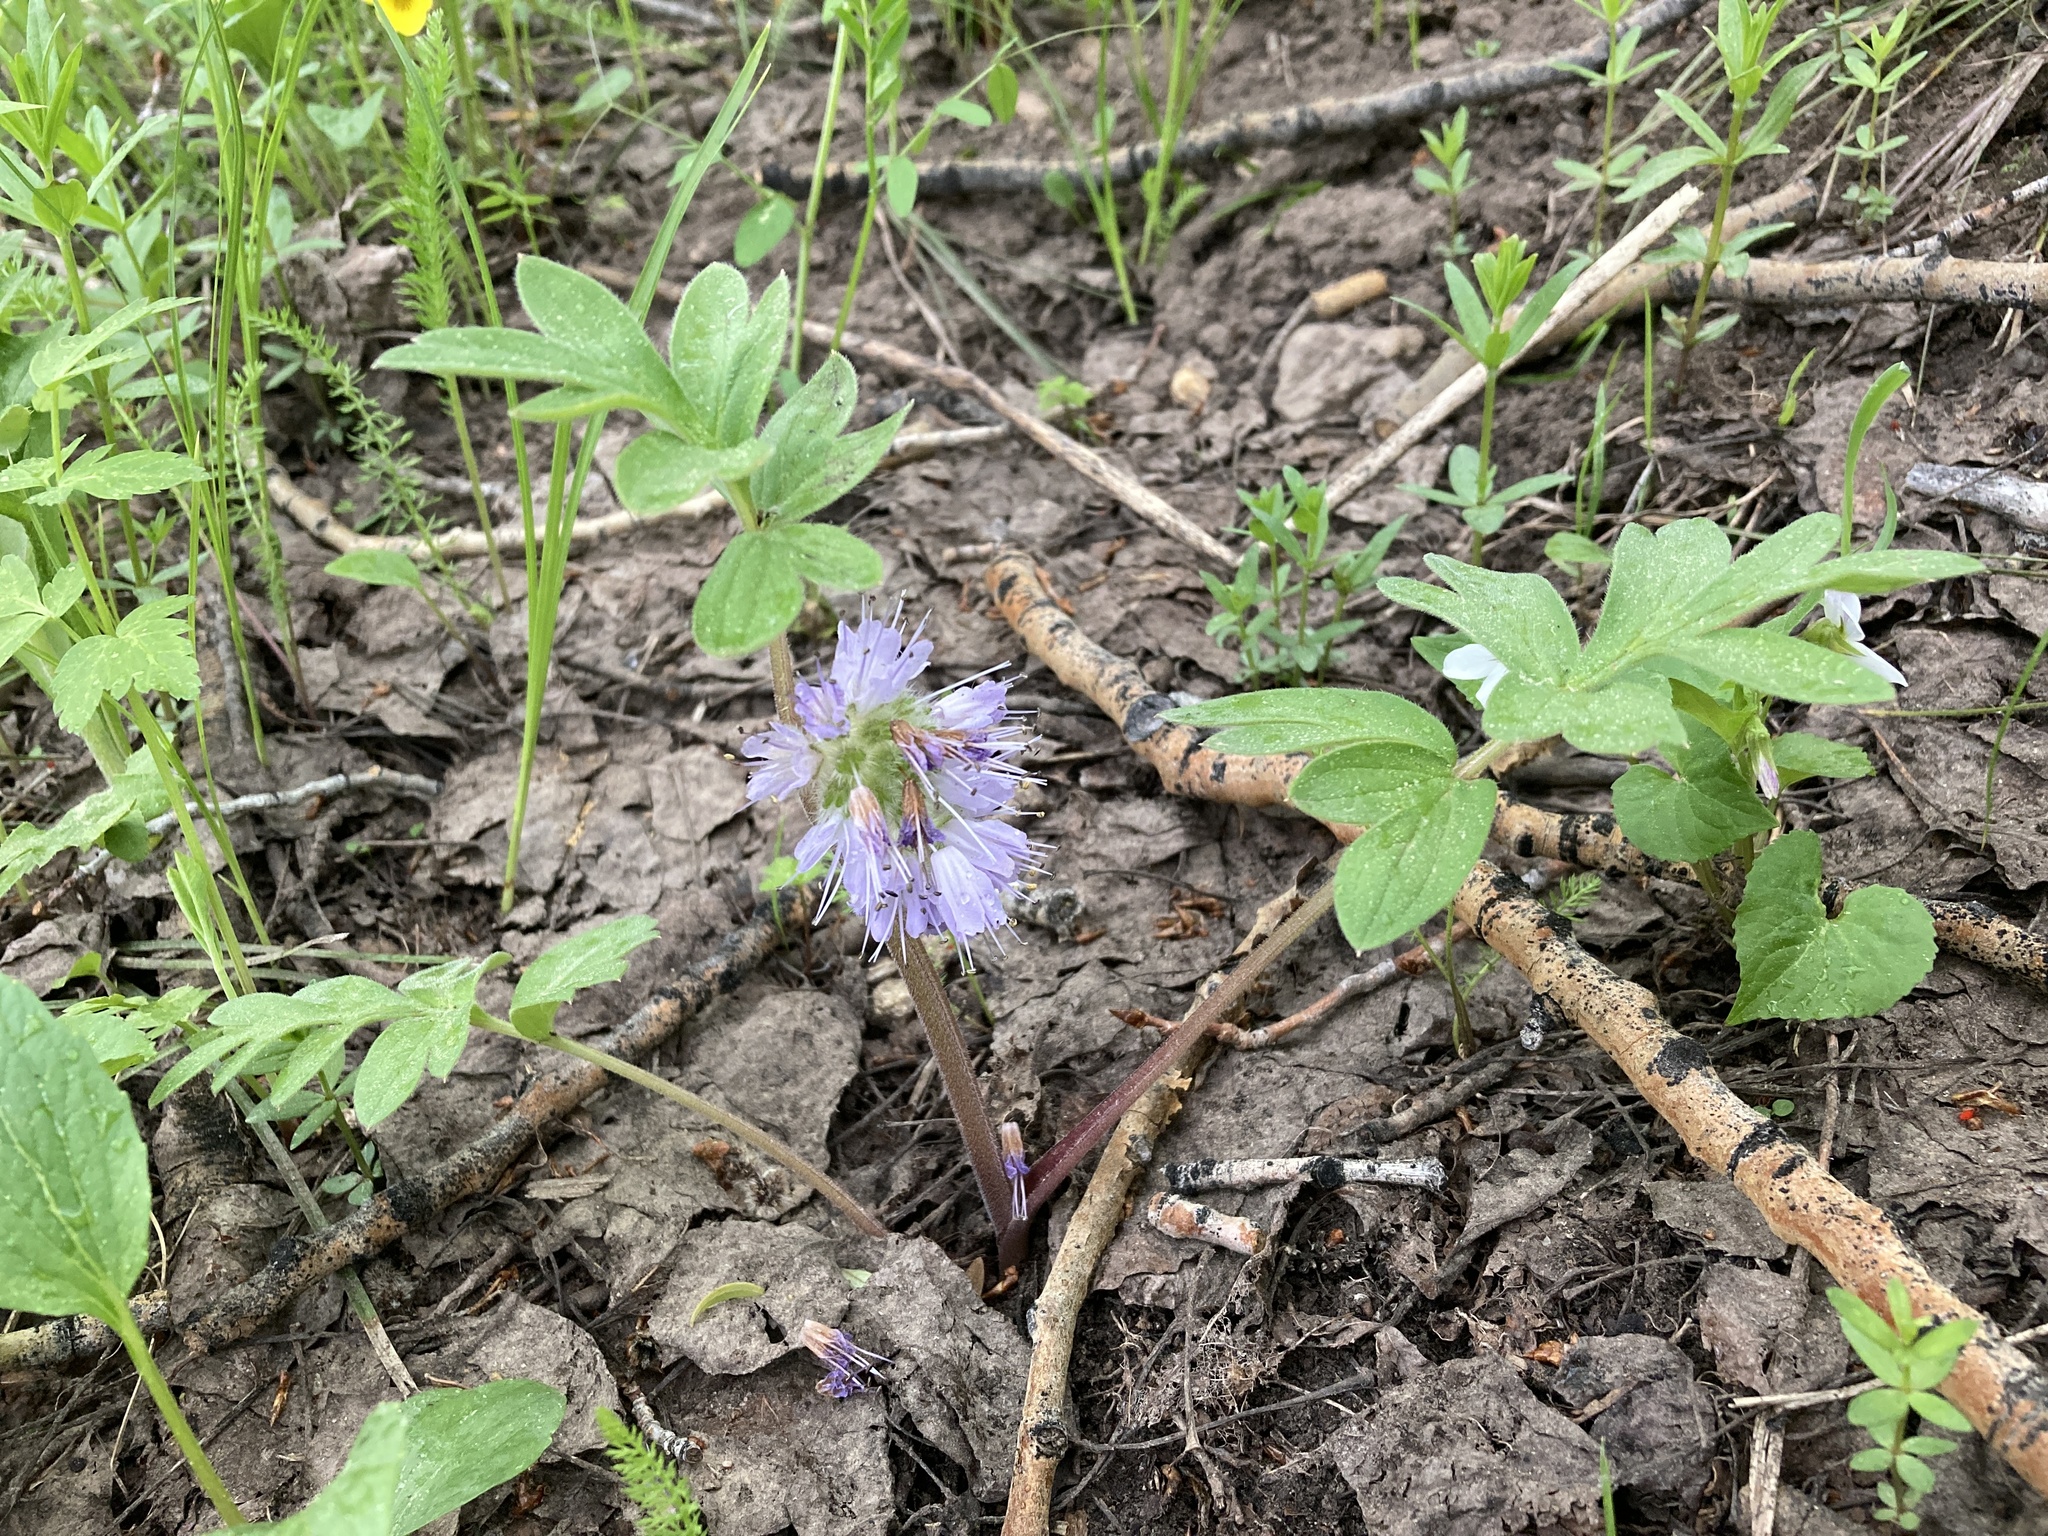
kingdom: Plantae
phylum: Tracheophyta
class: Magnoliopsida
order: Boraginales
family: Hydrophyllaceae
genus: Hydrophyllum
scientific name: Hydrophyllum capitatum
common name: Woollen-breeches
